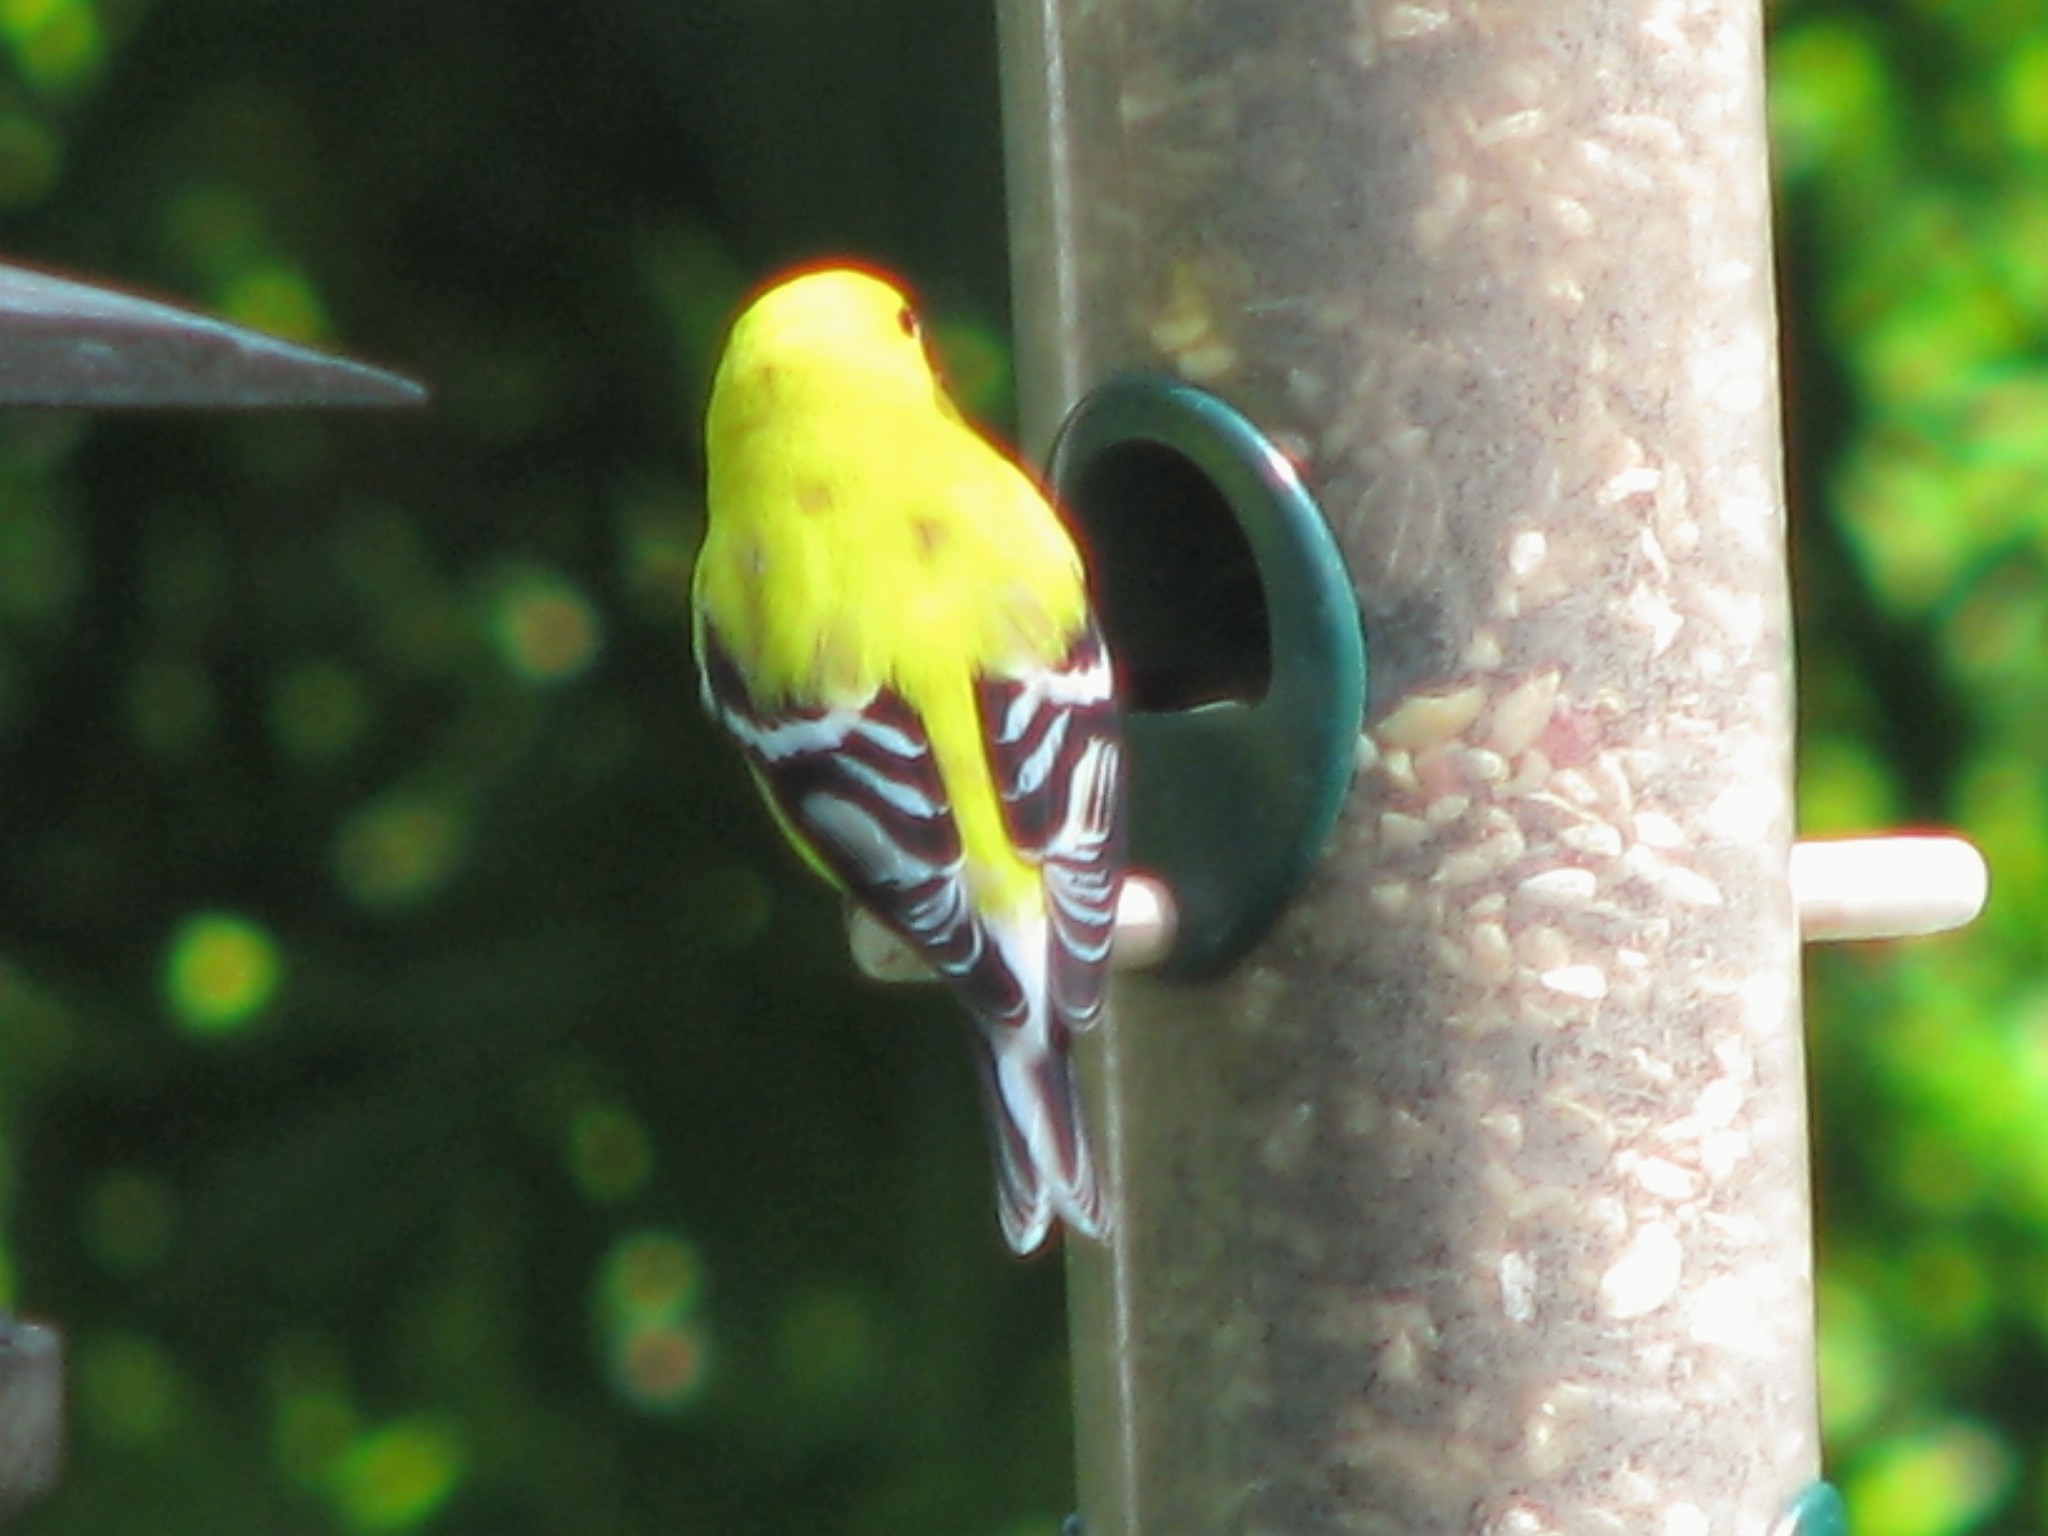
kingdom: Animalia
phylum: Chordata
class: Aves
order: Passeriformes
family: Fringillidae
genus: Spinus
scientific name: Spinus tristis
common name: American goldfinch
